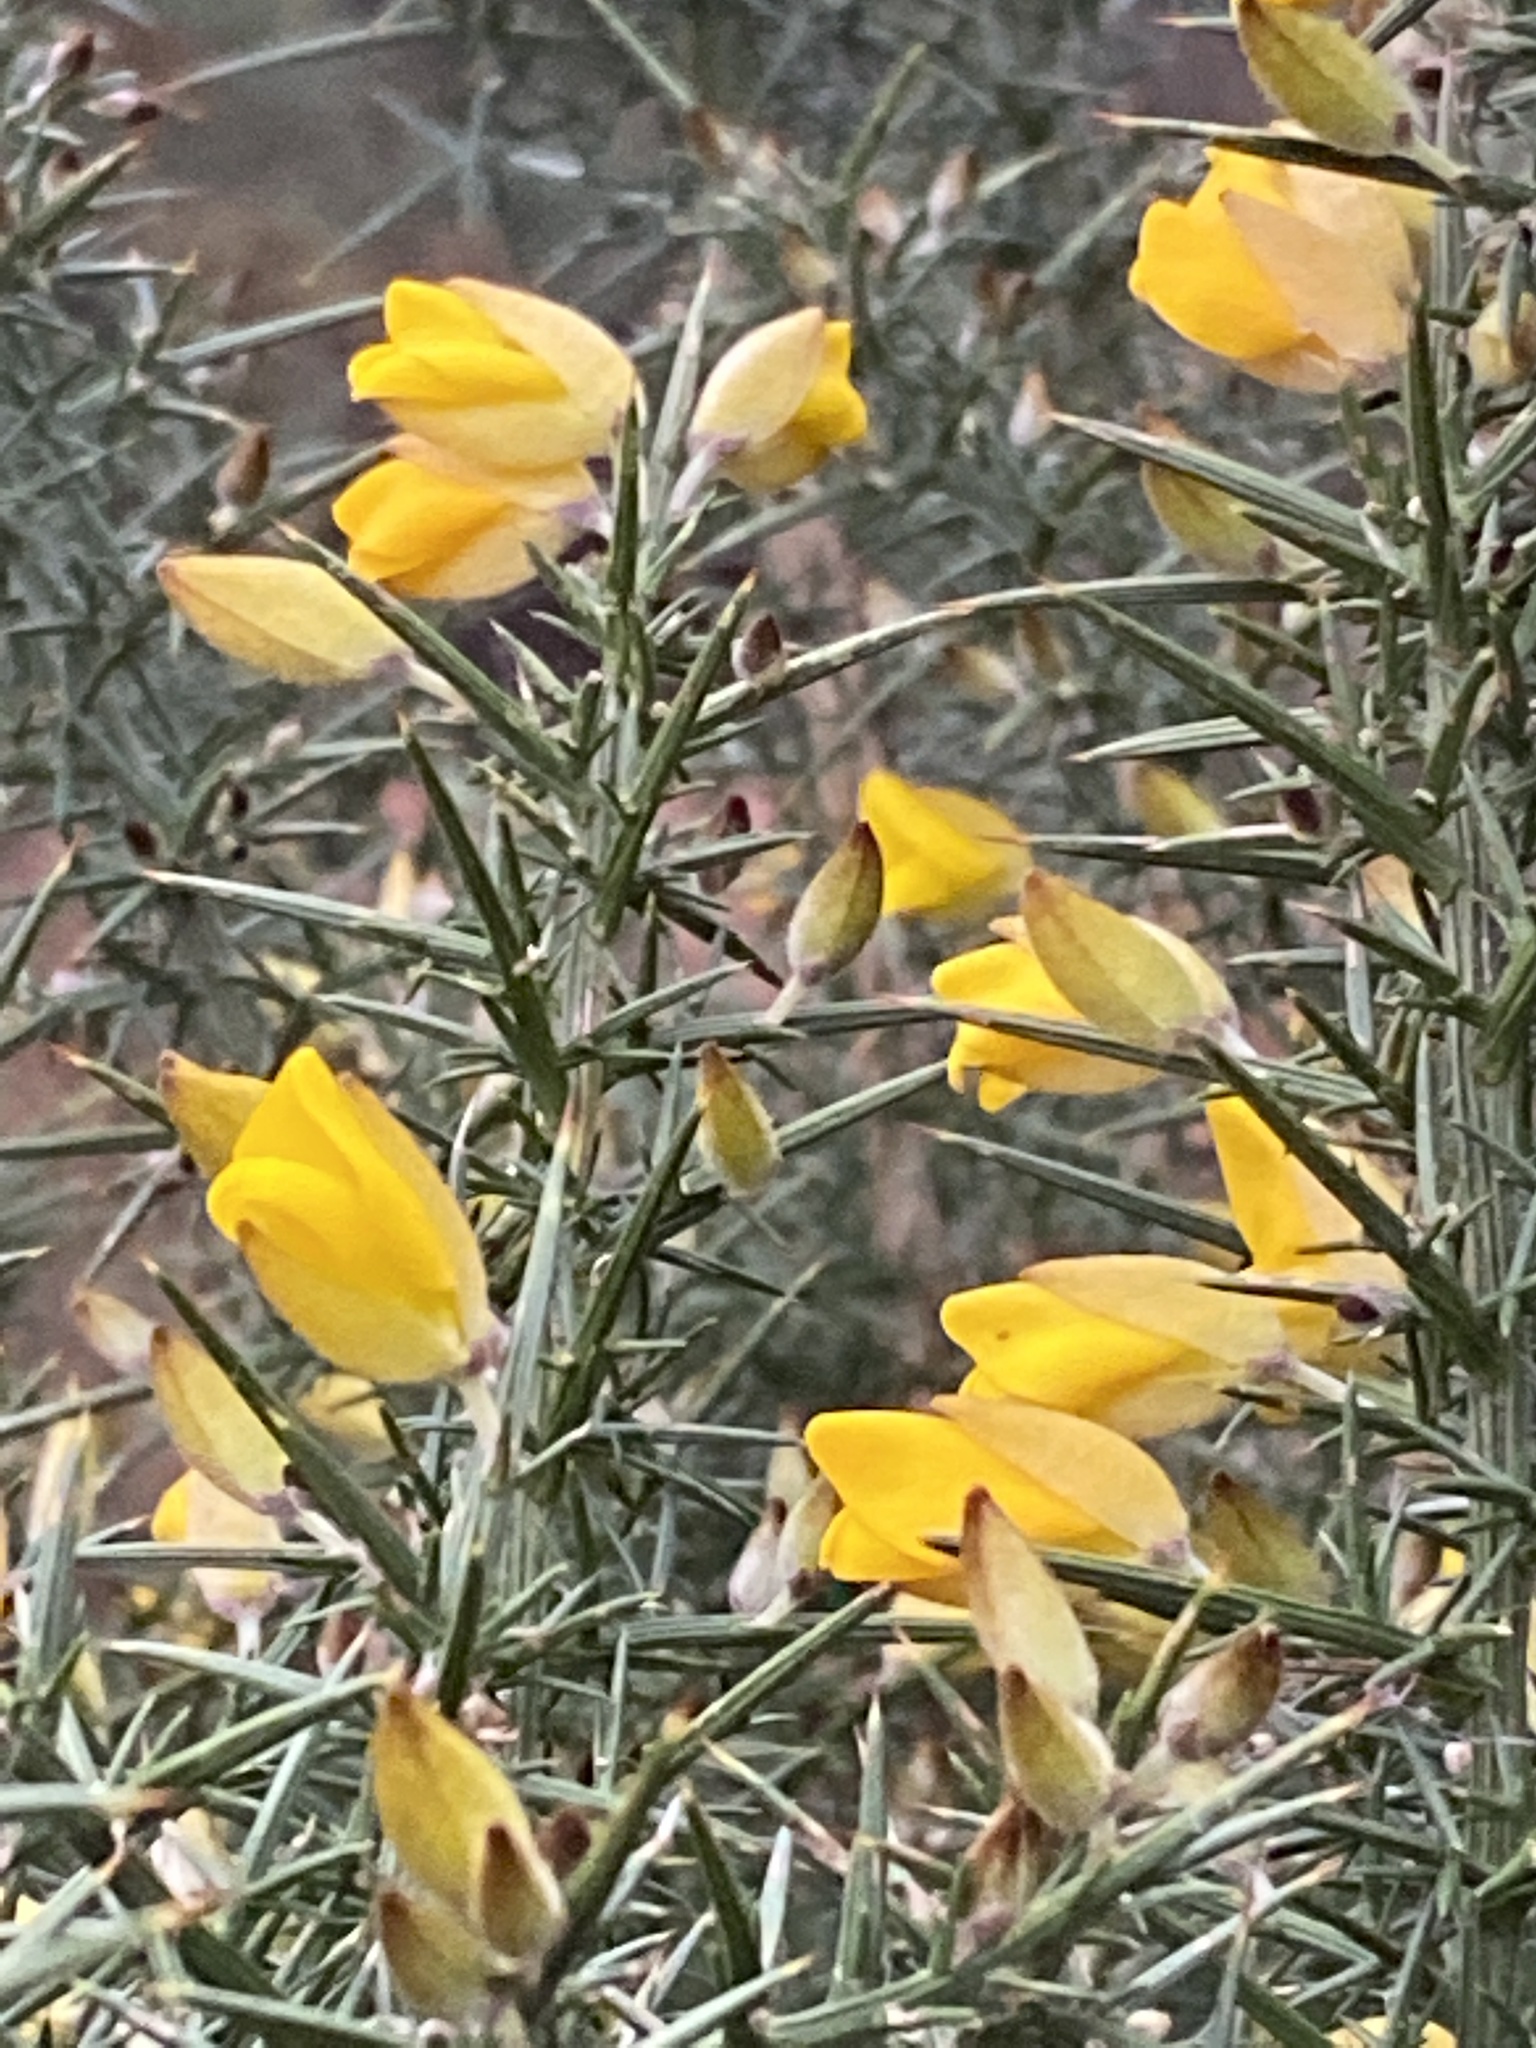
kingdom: Plantae
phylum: Tracheophyta
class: Magnoliopsida
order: Fabales
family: Fabaceae
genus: Ulex
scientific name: Ulex europaeus
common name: Common gorse
